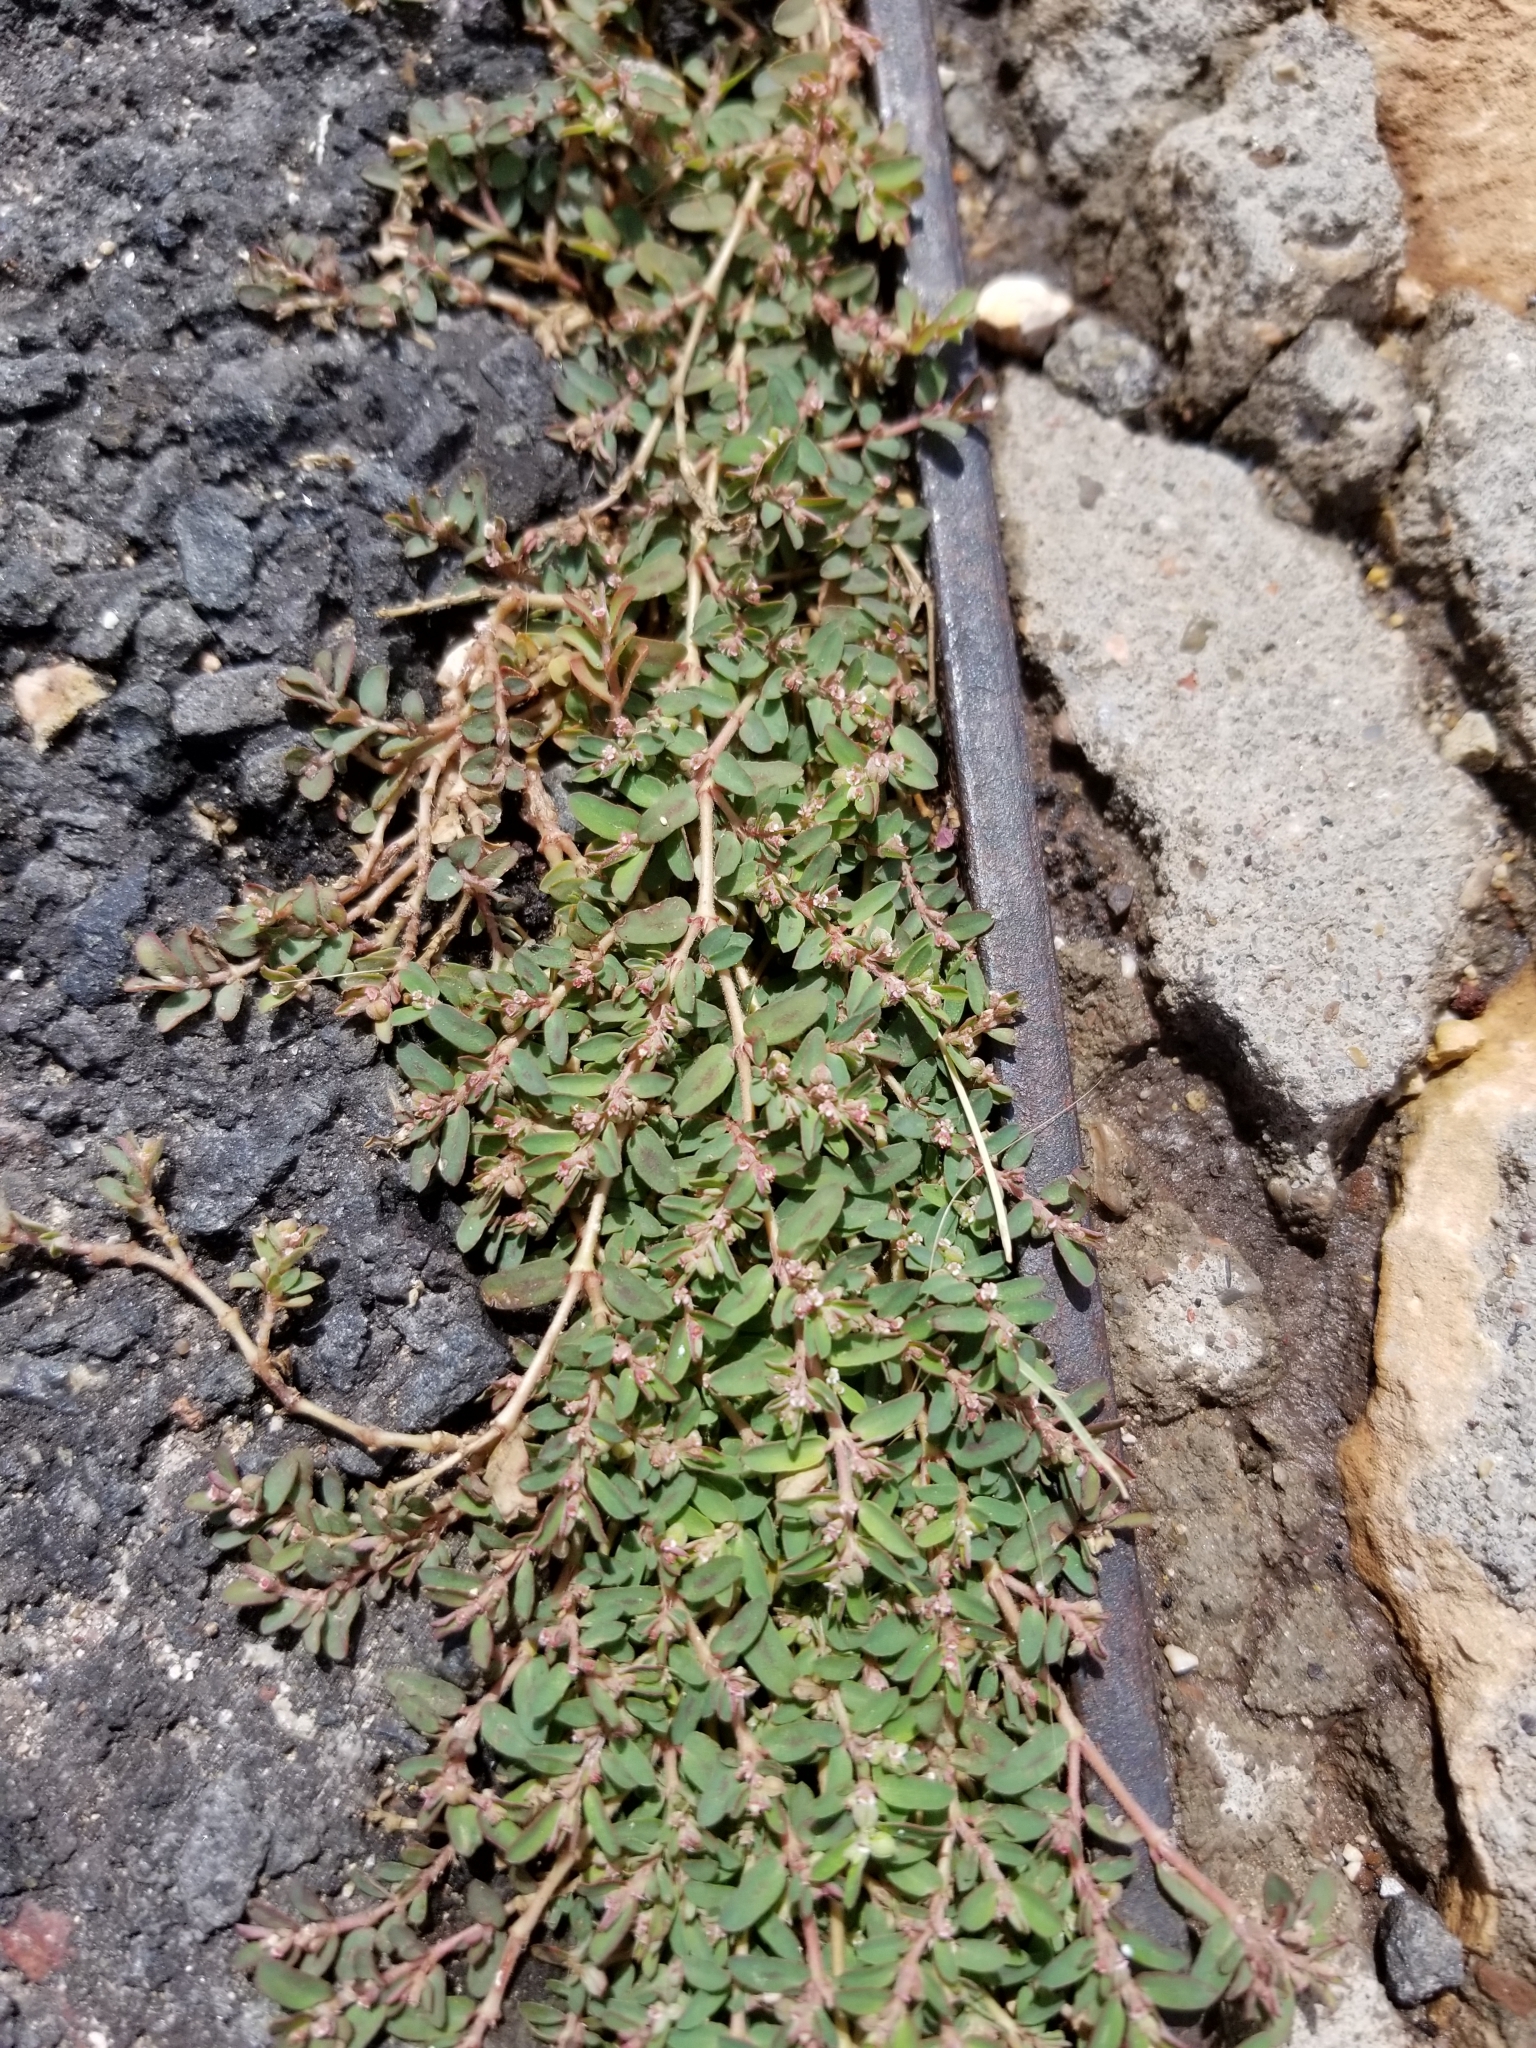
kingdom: Plantae
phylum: Tracheophyta
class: Magnoliopsida
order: Malpighiales
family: Euphorbiaceae
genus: Euphorbia
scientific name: Euphorbia maculata
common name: Spotted spurge
